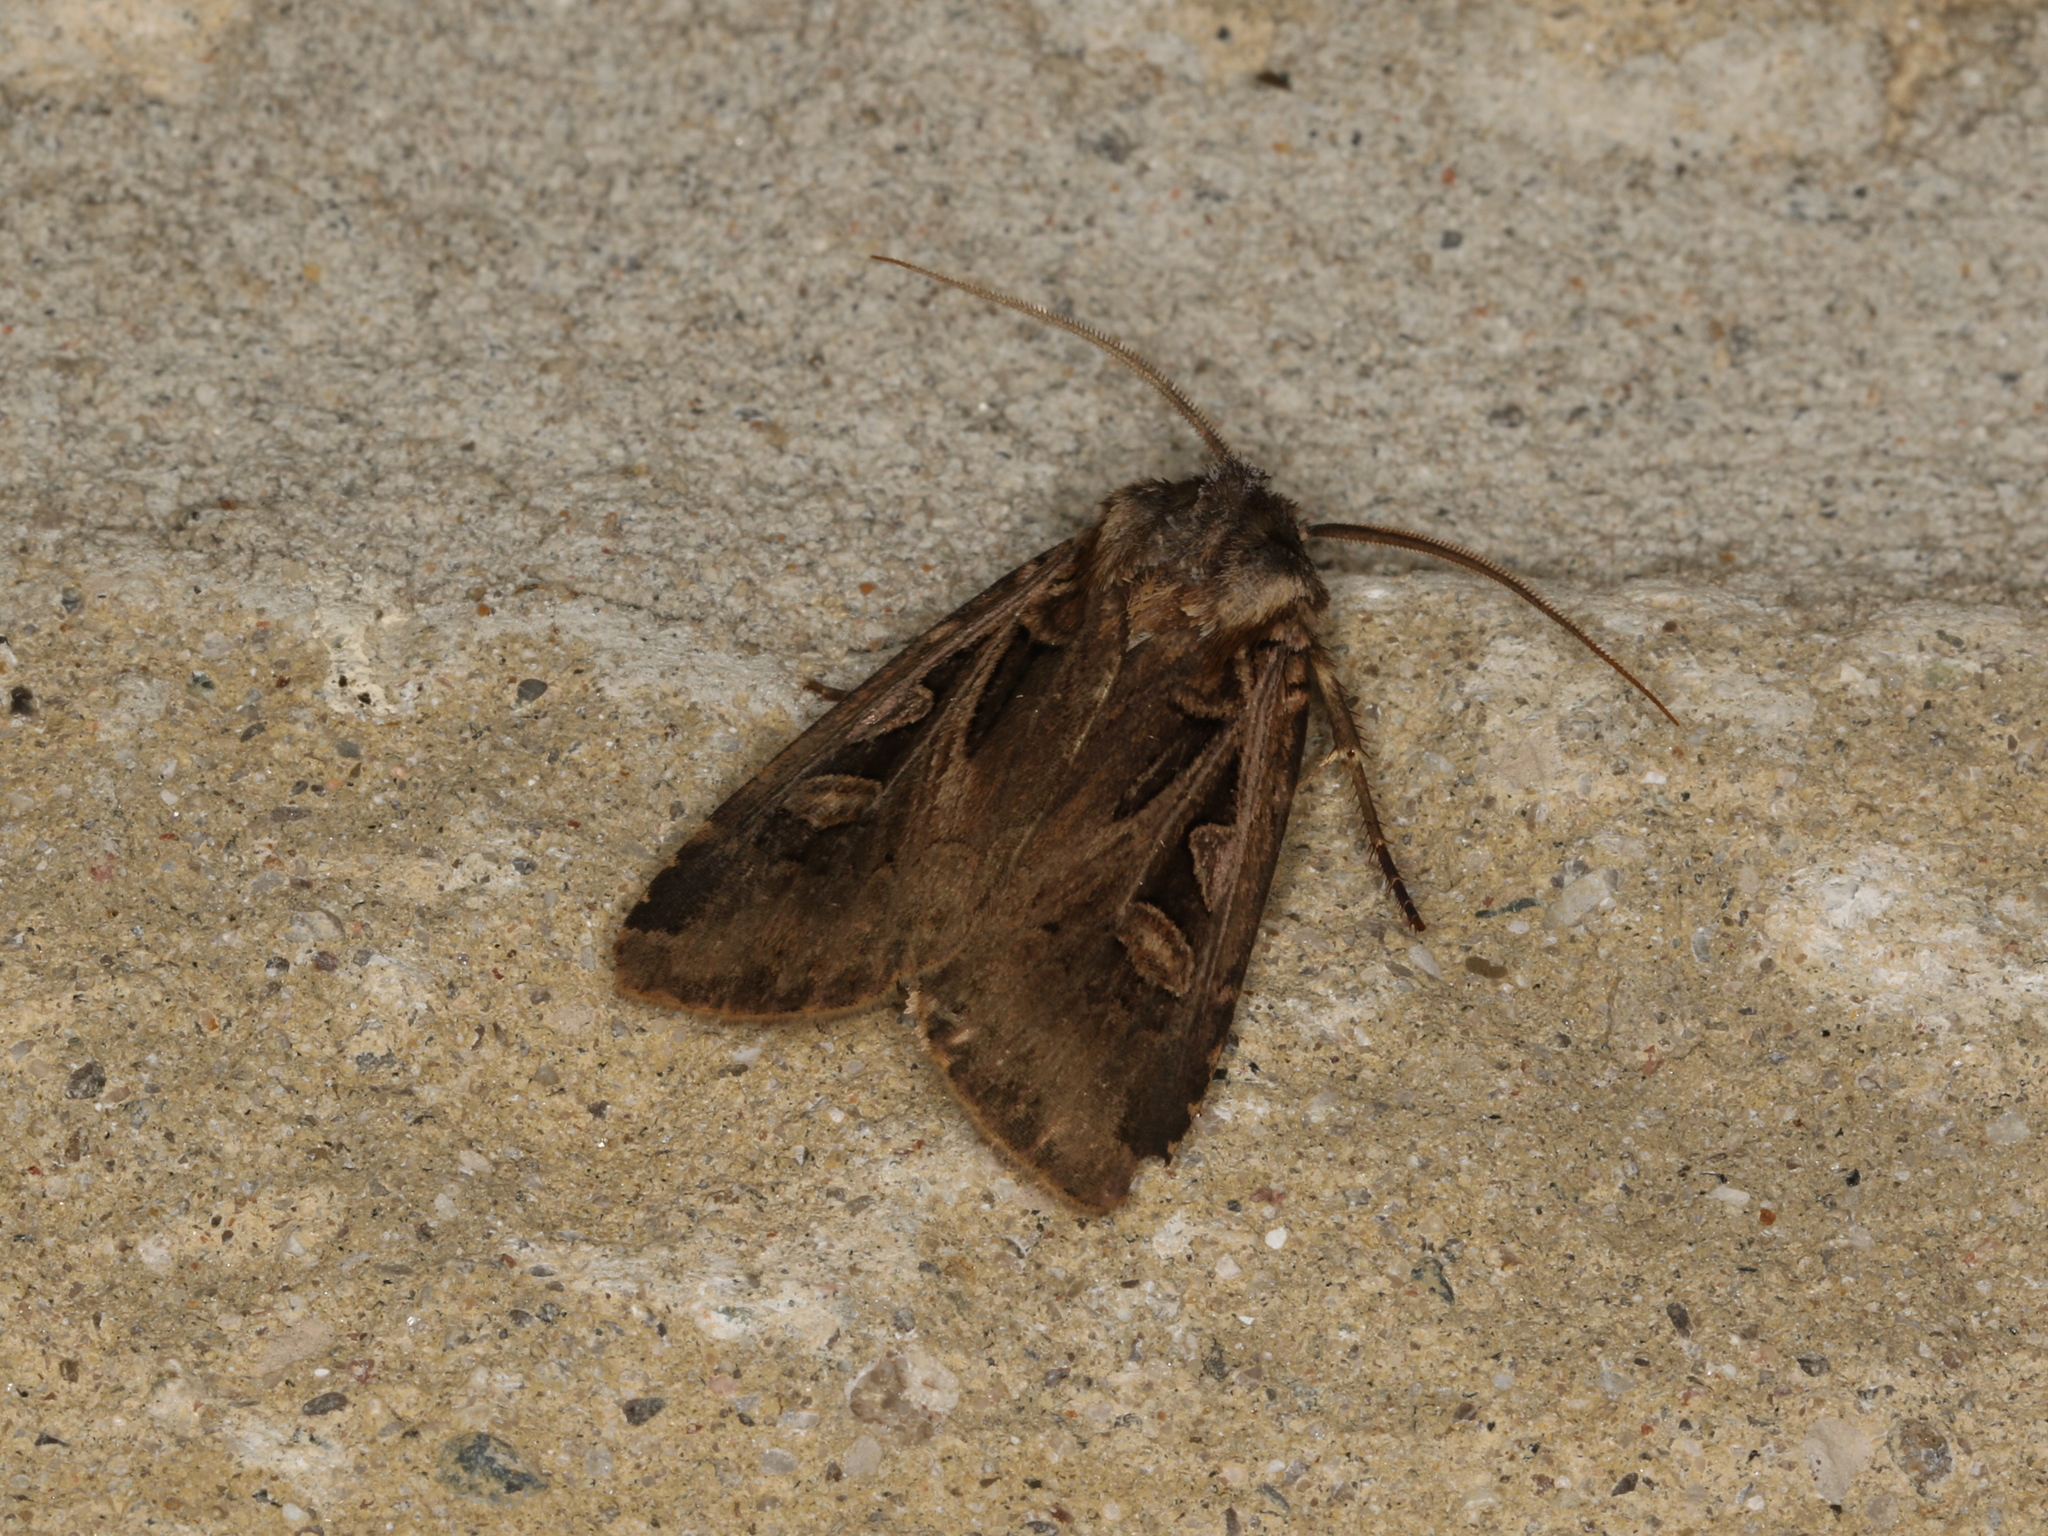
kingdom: Animalia
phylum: Arthropoda
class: Insecta
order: Lepidoptera
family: Noctuidae
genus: Feltia
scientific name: Feltia
